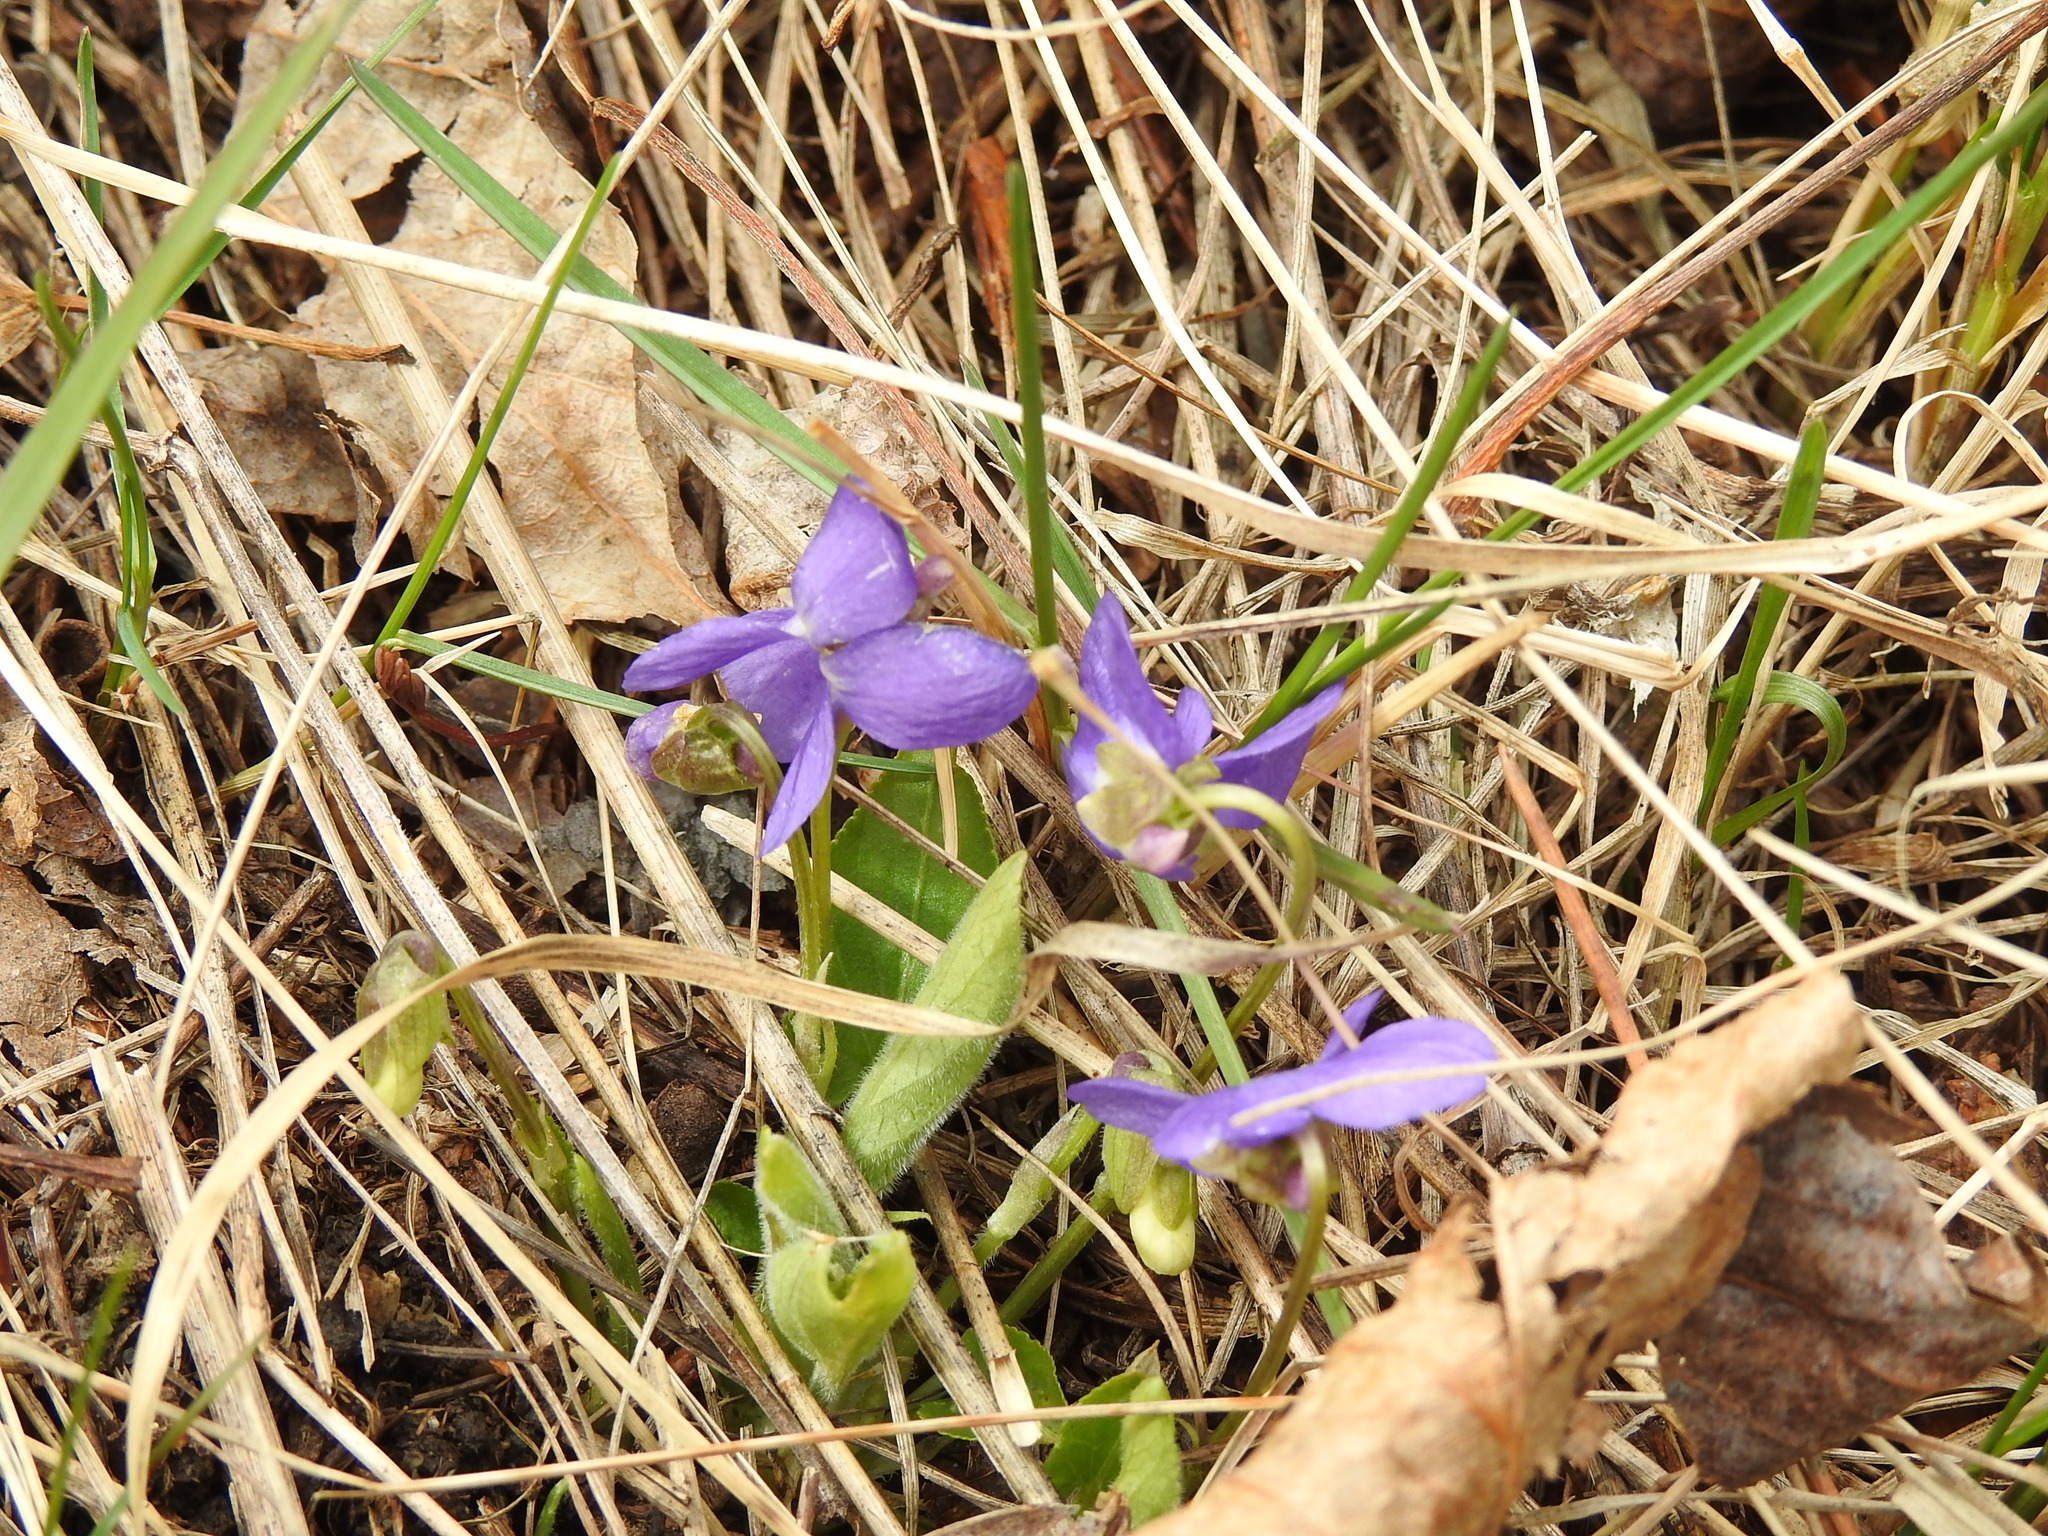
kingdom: Plantae
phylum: Tracheophyta
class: Magnoliopsida
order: Malpighiales
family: Violaceae
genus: Viola
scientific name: Viola hirta
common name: Hairy violet
